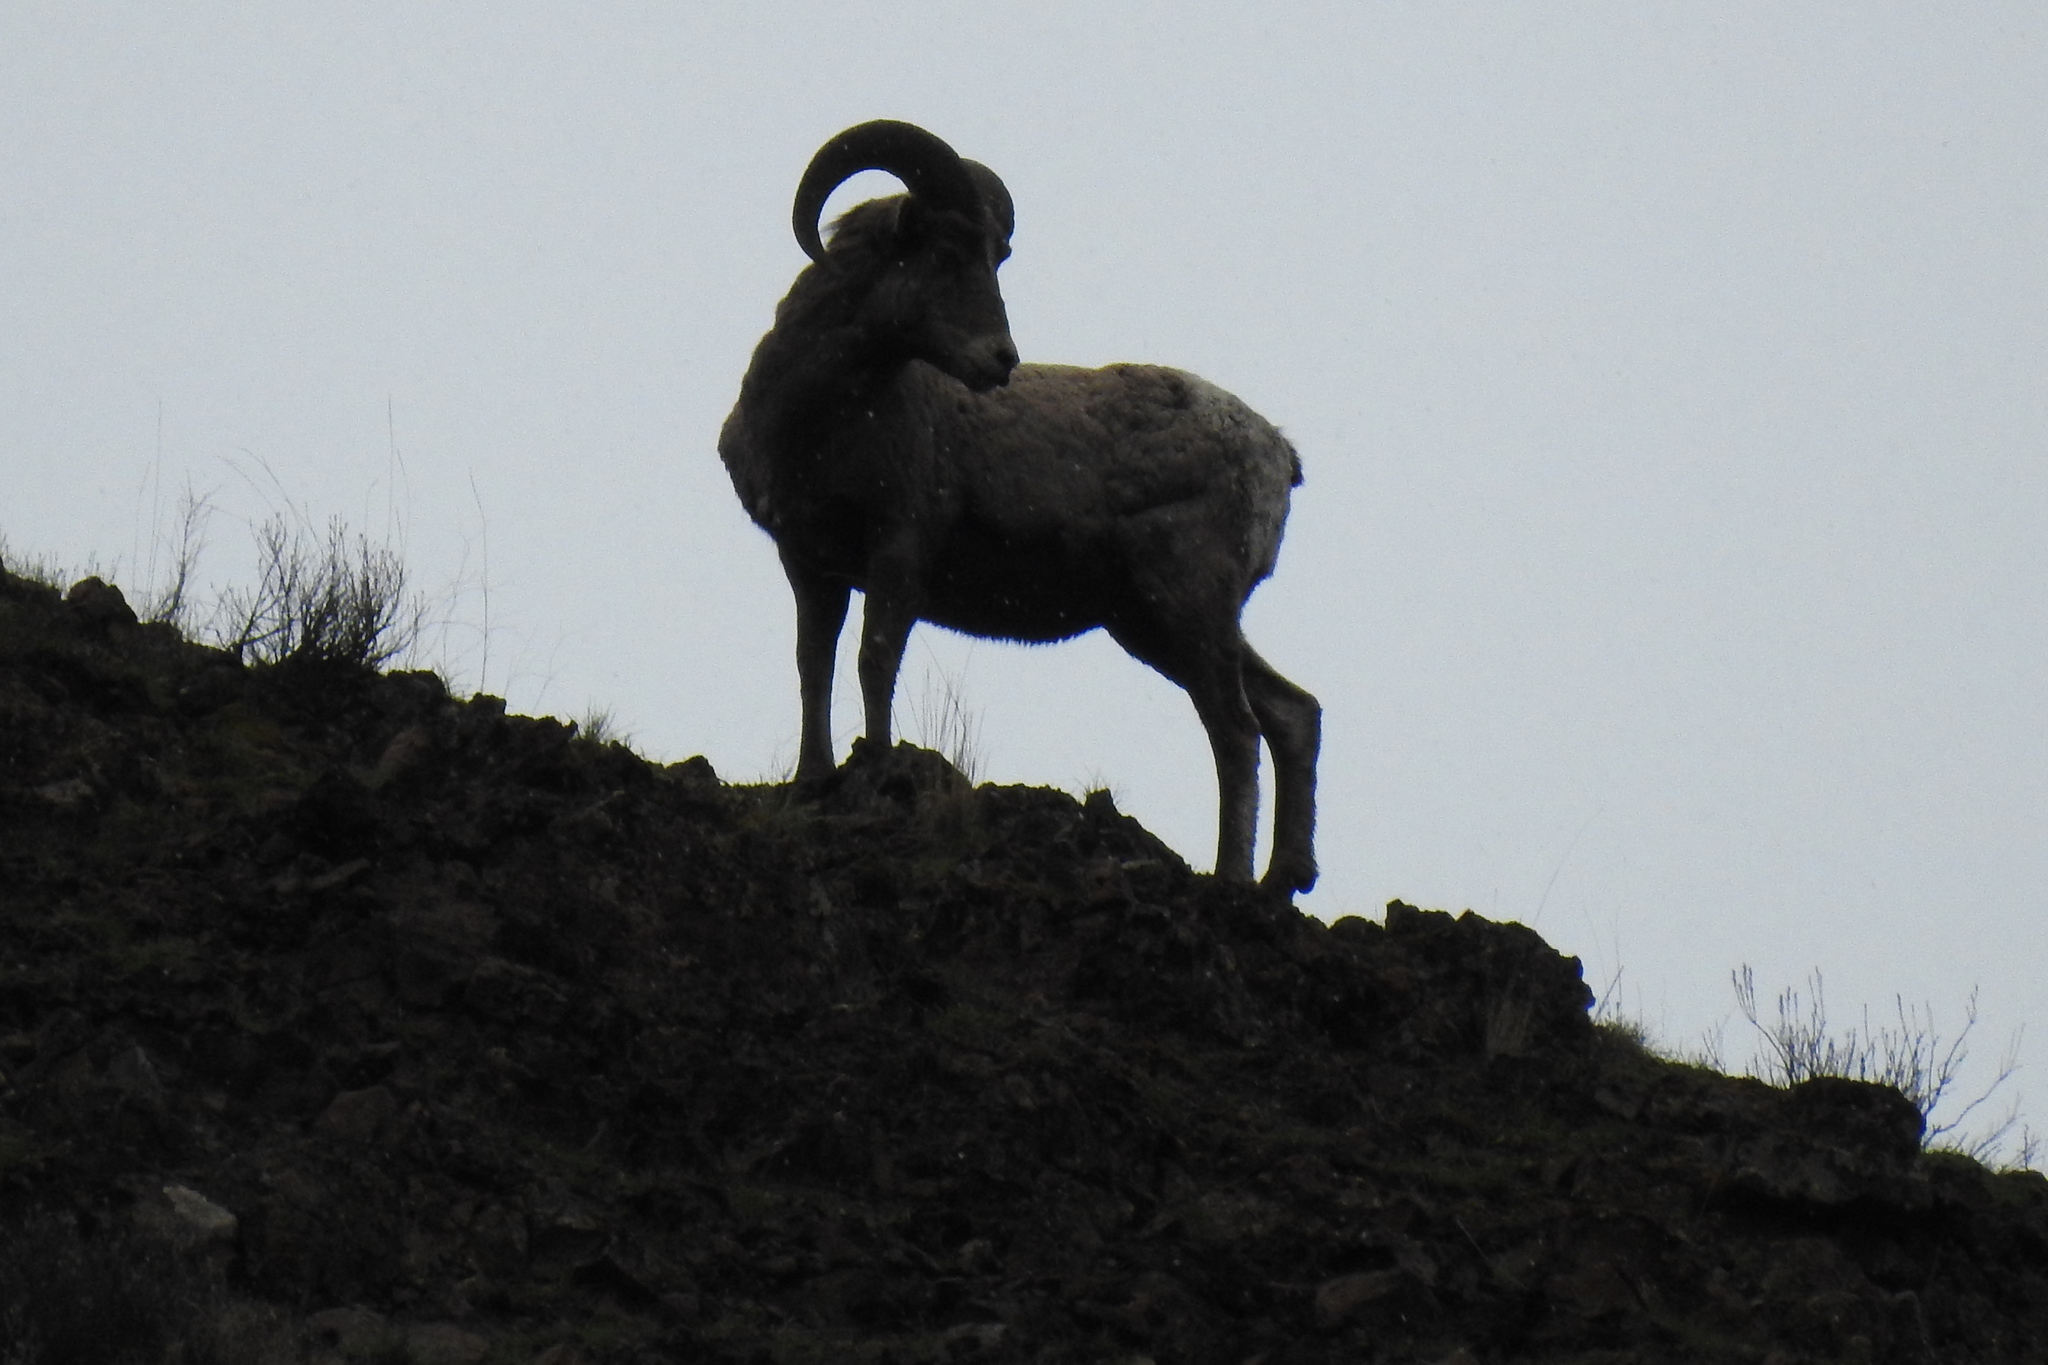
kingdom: Animalia
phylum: Chordata
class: Mammalia
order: Artiodactyla
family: Bovidae
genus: Ovis
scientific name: Ovis canadensis
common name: Bighorn sheep
